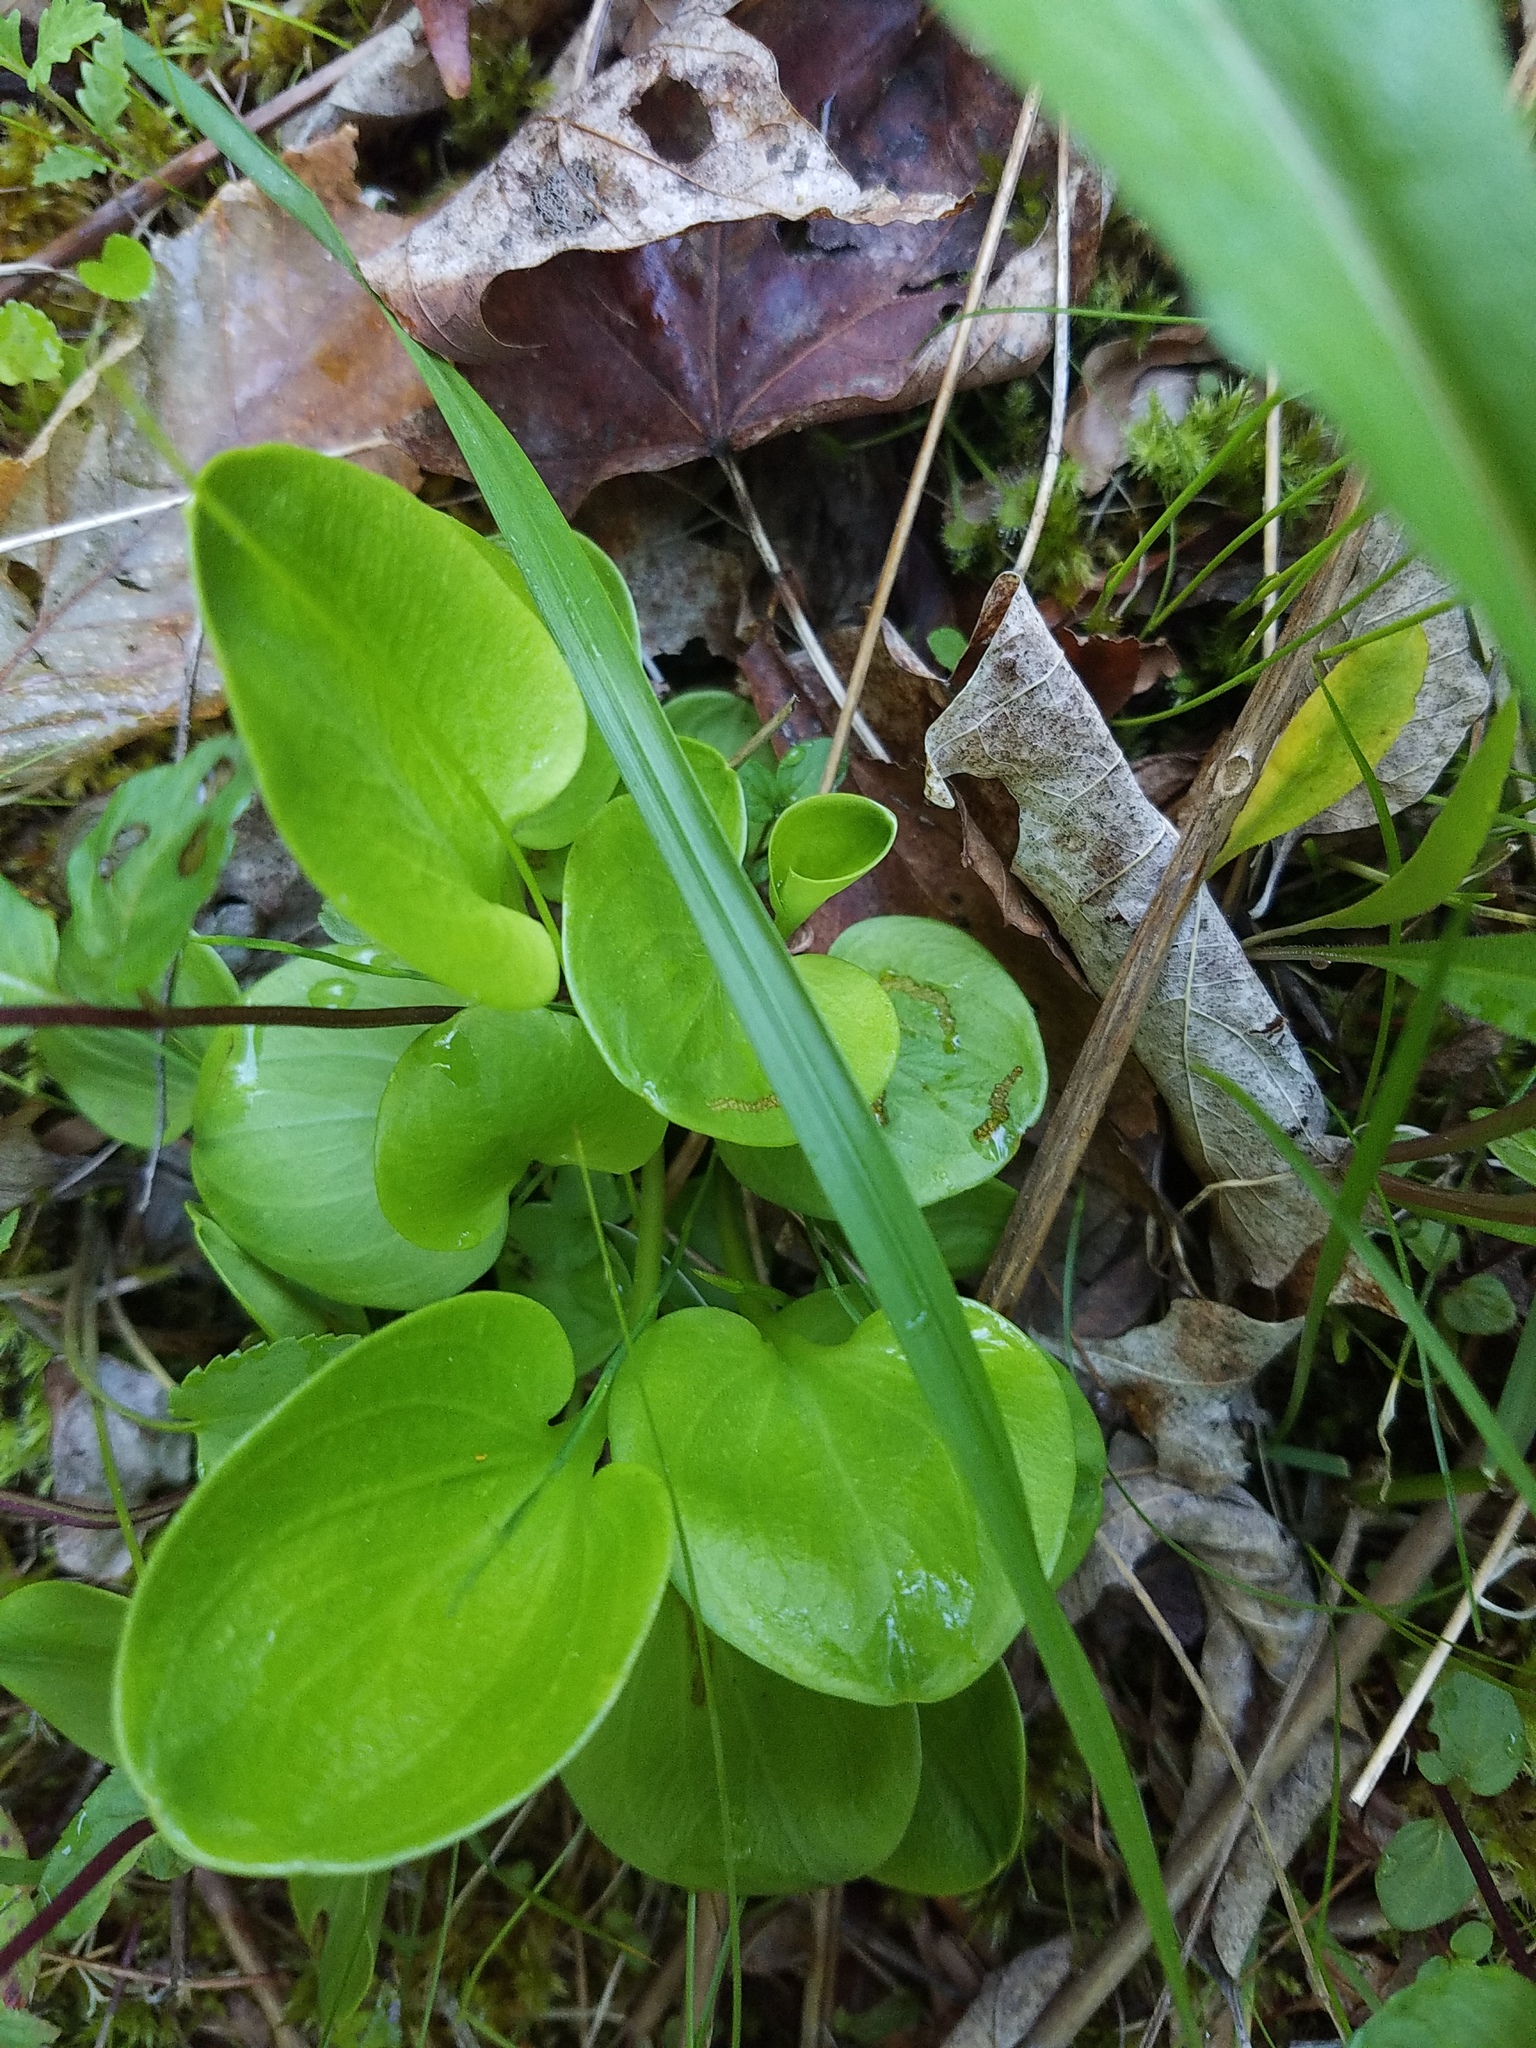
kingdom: Plantae
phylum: Tracheophyta
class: Magnoliopsida
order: Celastrales
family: Parnassiaceae
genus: Parnassia
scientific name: Parnassia glauca
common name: American grass-of-parnassus
